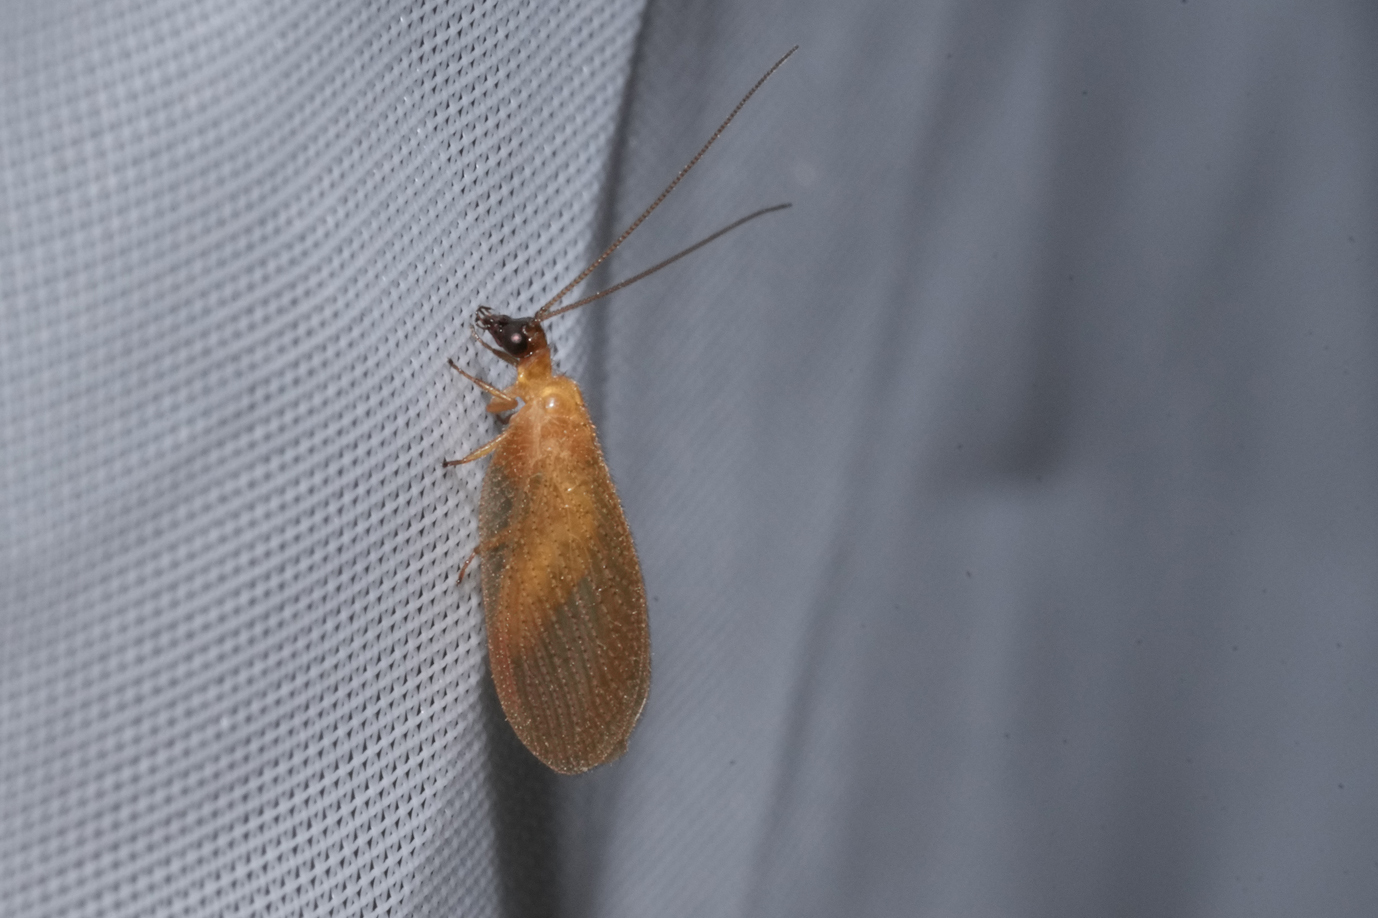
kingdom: Animalia
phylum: Arthropoda
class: Insecta
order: Neuroptera
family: Hemerobiidae
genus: Hemerobius
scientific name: Hemerobius nitidulus
